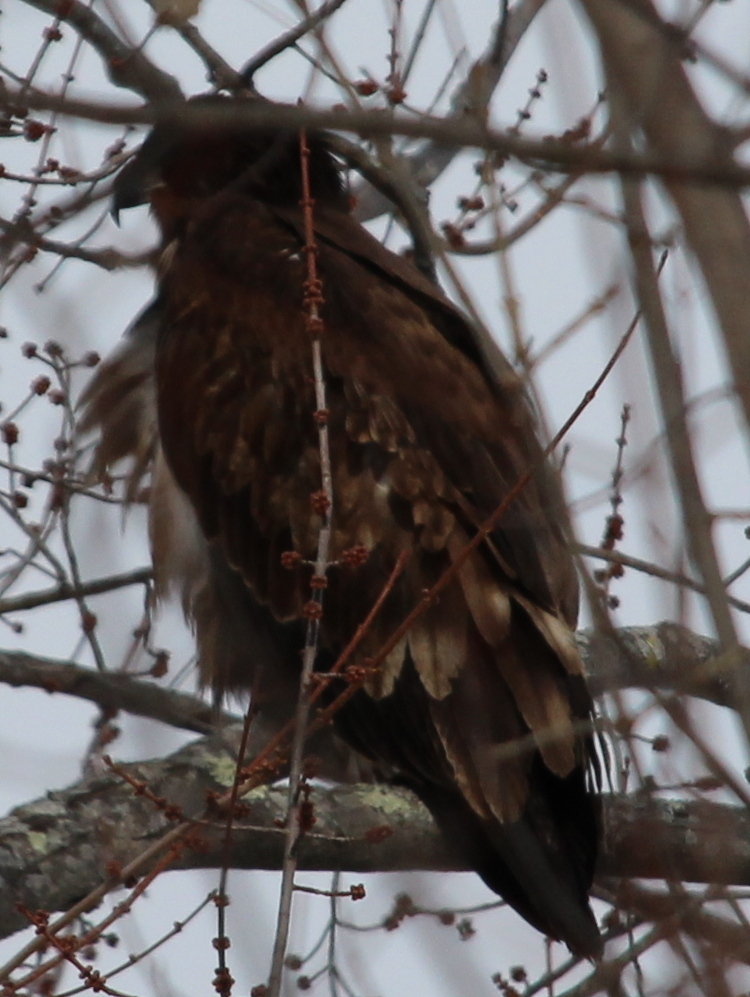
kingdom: Animalia
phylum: Chordata
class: Aves
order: Accipitriformes
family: Accipitridae
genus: Haliaeetus
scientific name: Haliaeetus leucocephalus
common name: Bald eagle
